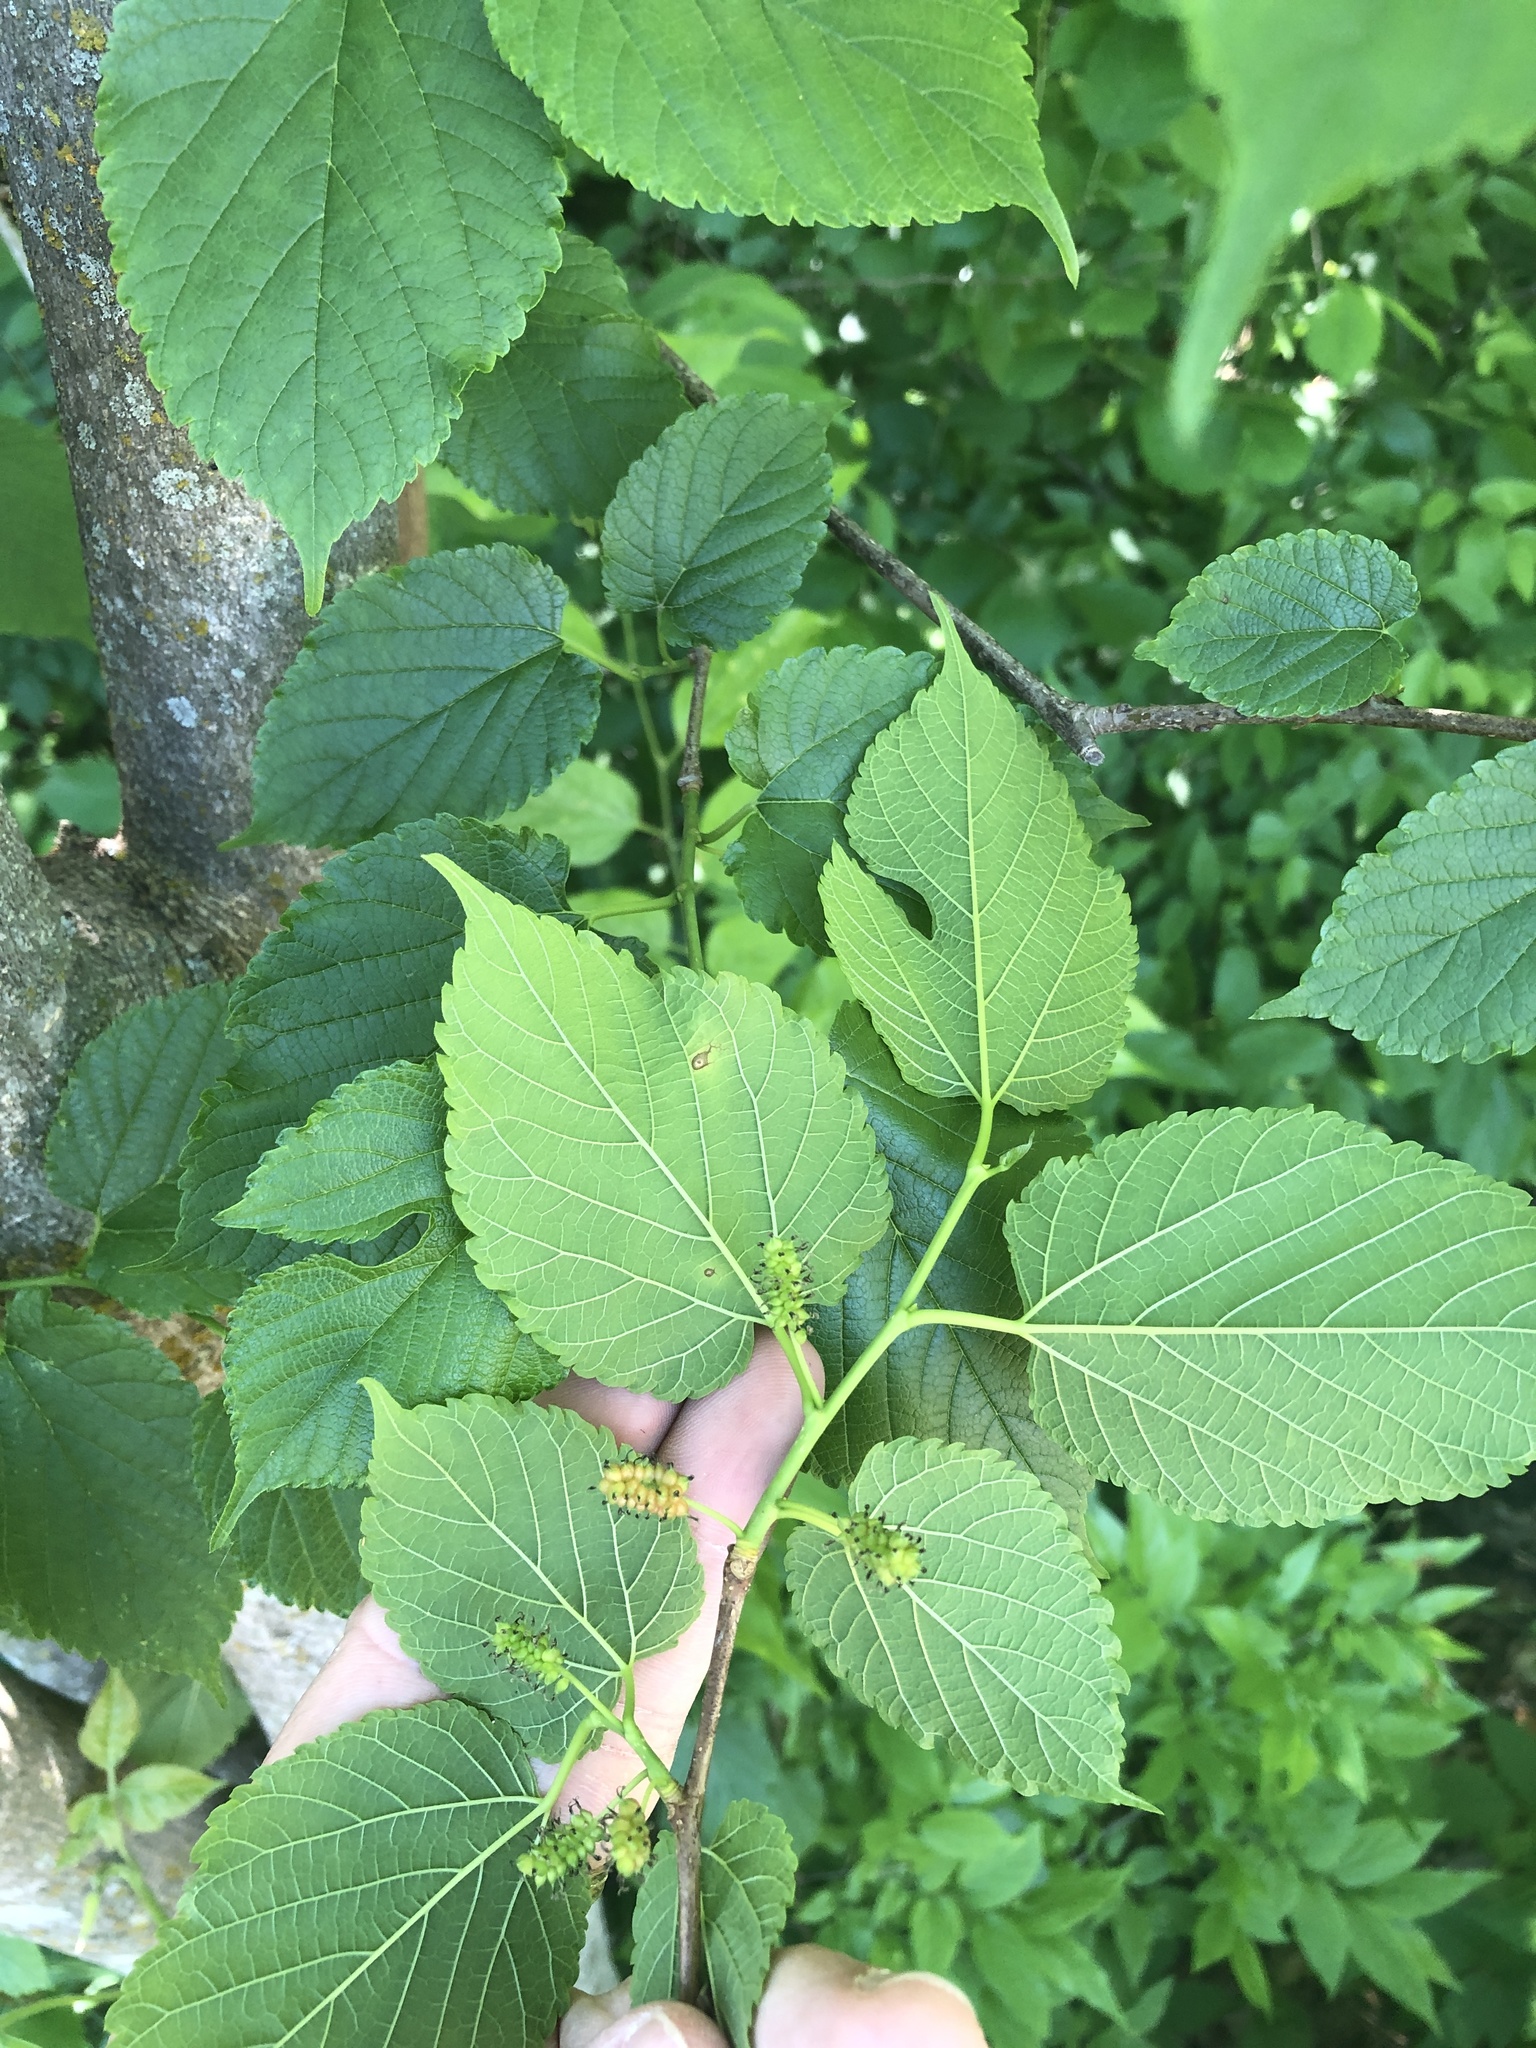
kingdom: Plantae
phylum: Tracheophyta
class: Magnoliopsida
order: Rosales
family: Moraceae
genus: Morus
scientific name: Morus rubra
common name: Red mulberry
